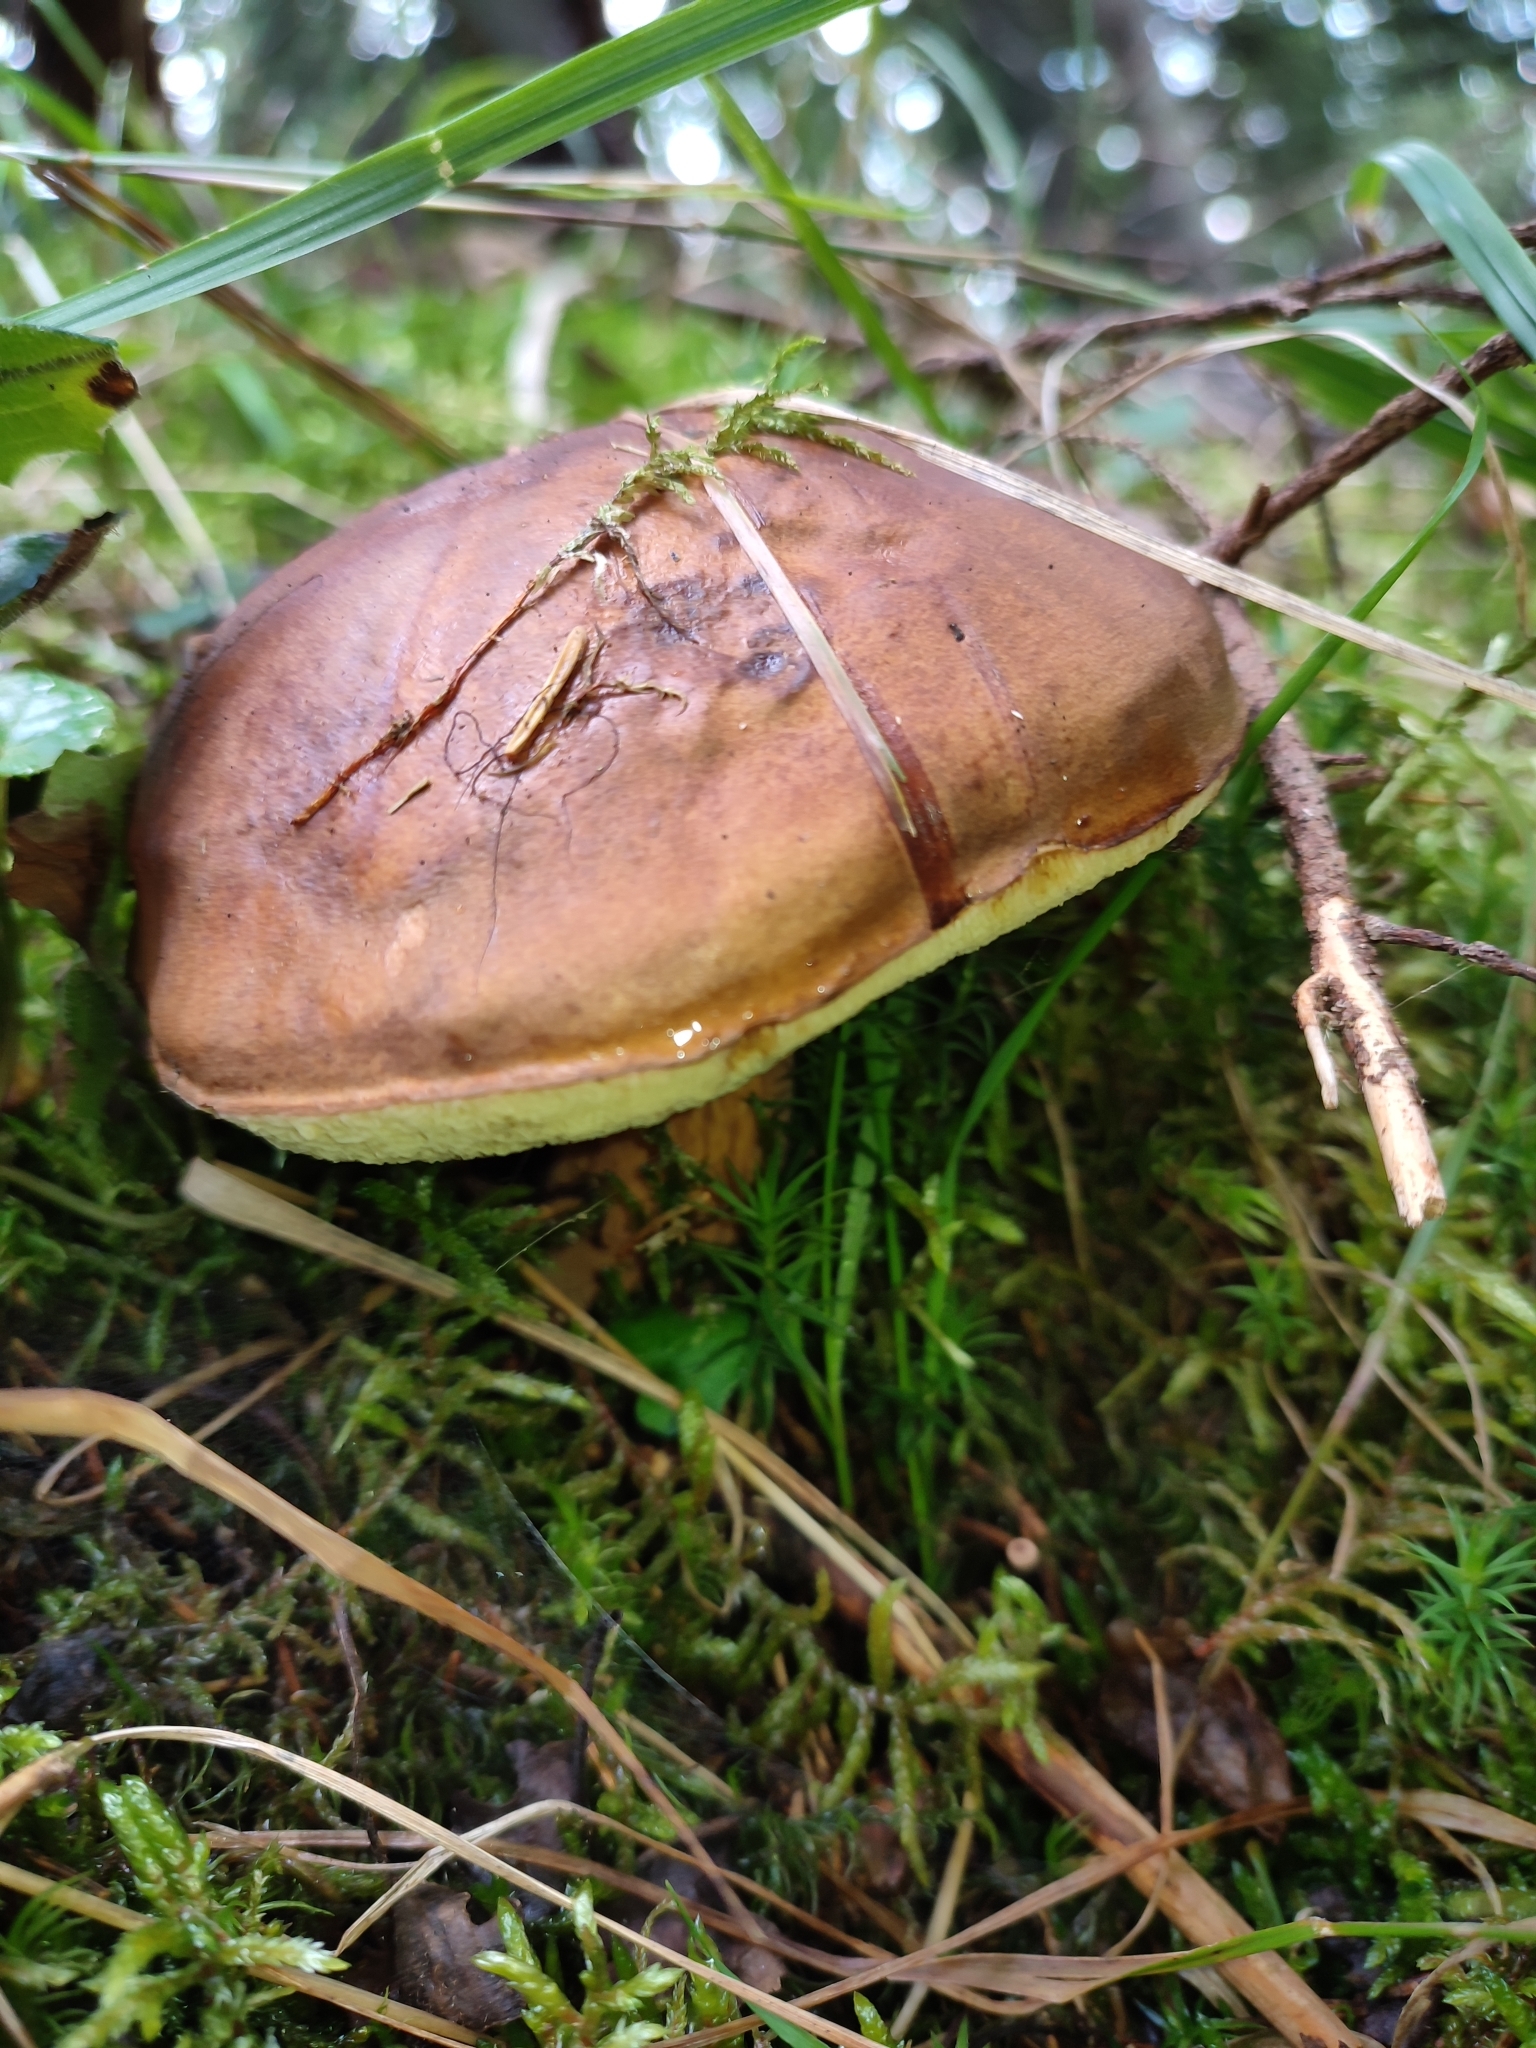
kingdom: Fungi
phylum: Basidiomycota
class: Agaricomycetes
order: Boletales
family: Boletaceae
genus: Imleria
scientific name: Imleria badia
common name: Bay bolete
